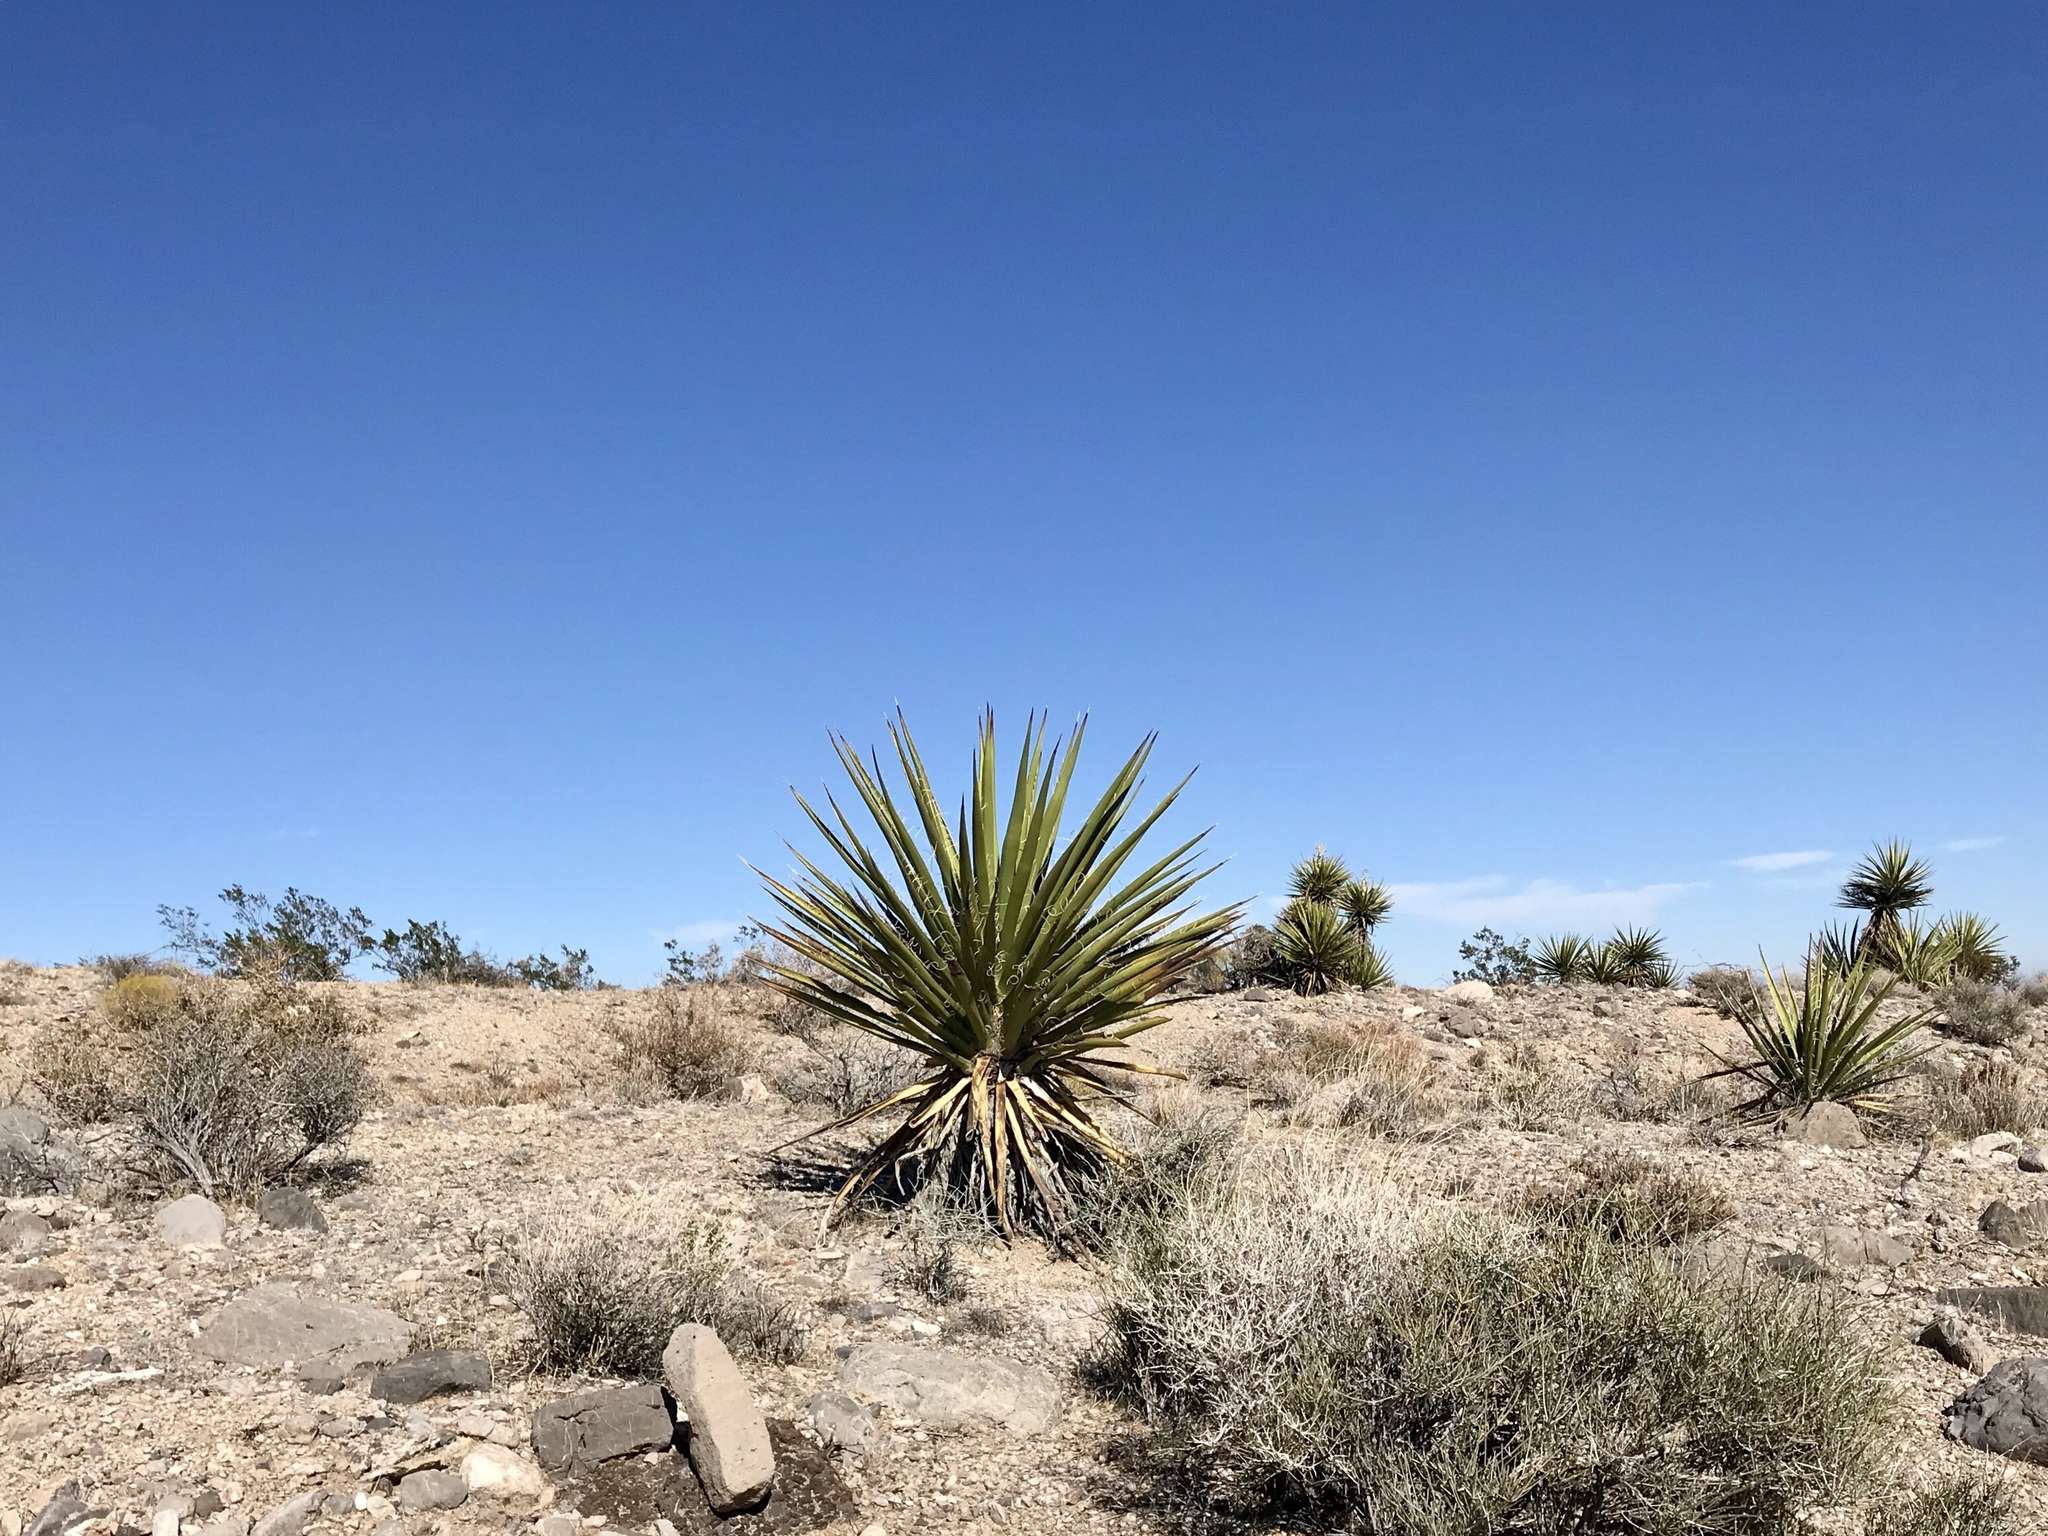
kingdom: Plantae
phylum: Tracheophyta
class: Liliopsida
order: Asparagales
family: Asparagaceae
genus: Yucca
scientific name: Yucca schidigera
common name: Mojave yucca
